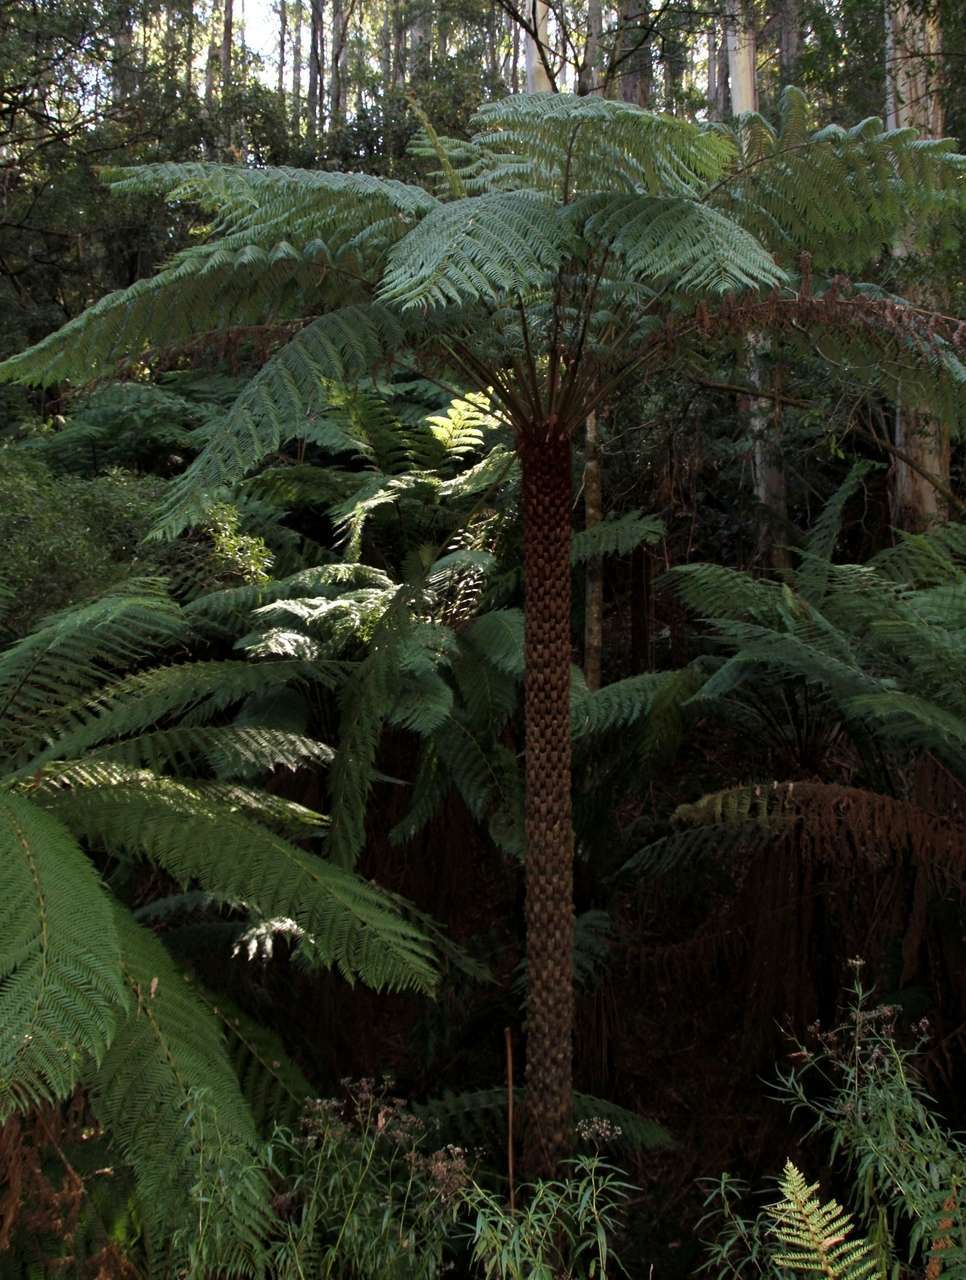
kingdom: Plantae
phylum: Tracheophyta
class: Polypodiopsida
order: Cyatheales
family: Cyatheaceae
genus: Alsophila
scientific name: Alsophila australis
